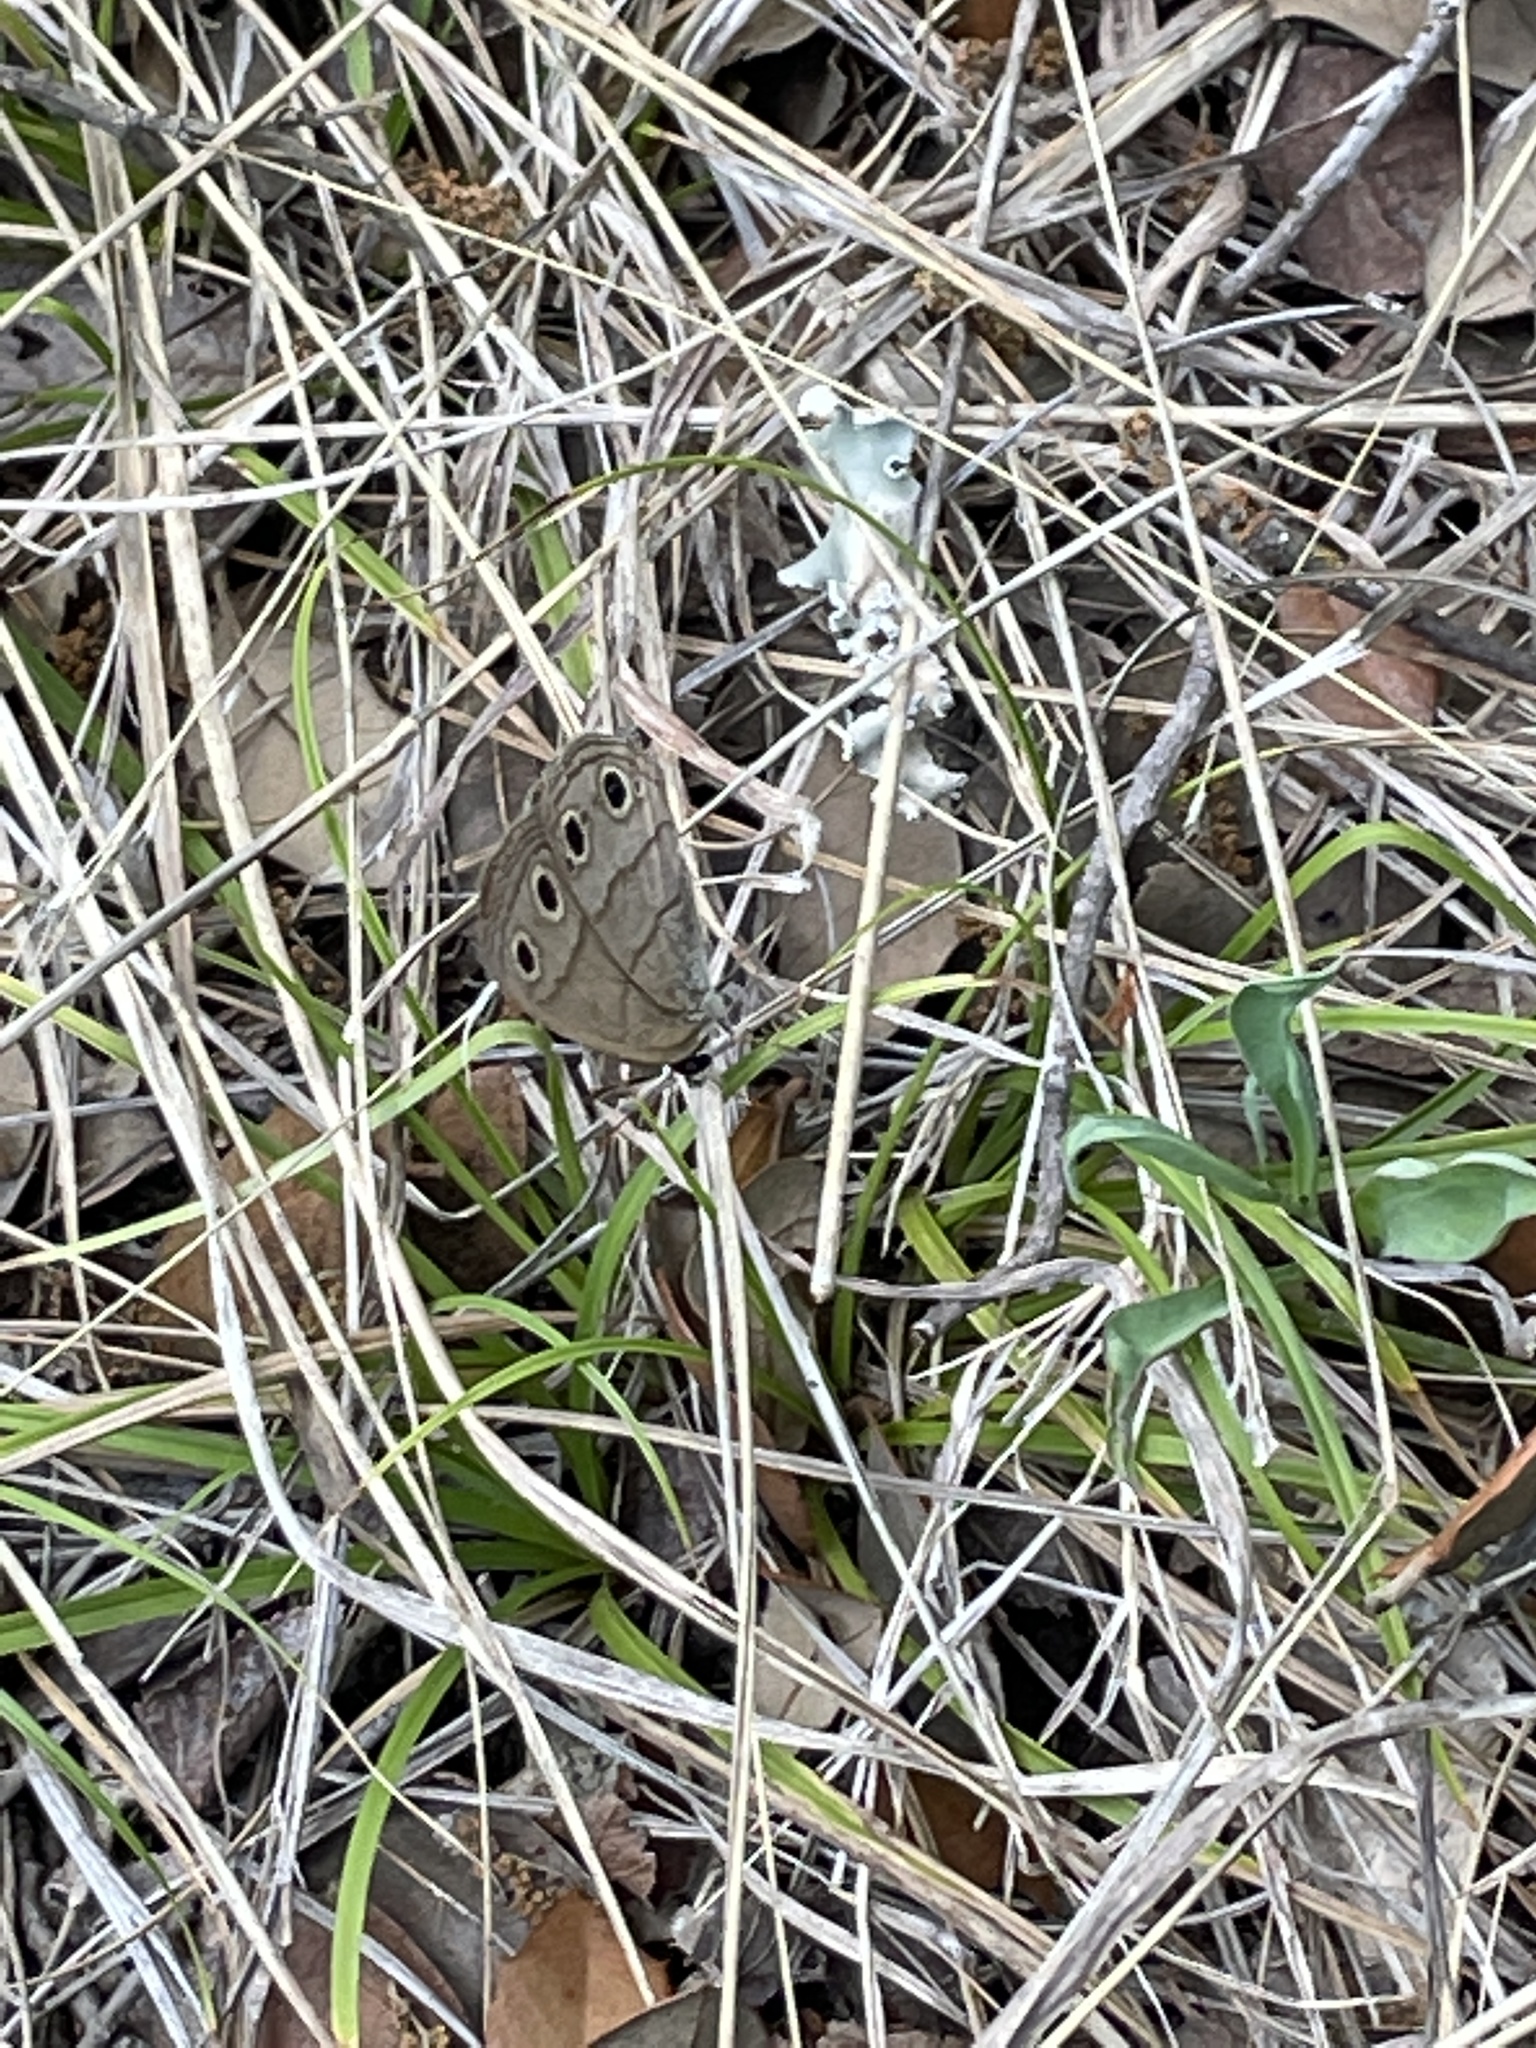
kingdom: Animalia
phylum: Arthropoda
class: Insecta
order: Lepidoptera
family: Nymphalidae
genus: Euptychia
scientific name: Euptychia cymela
